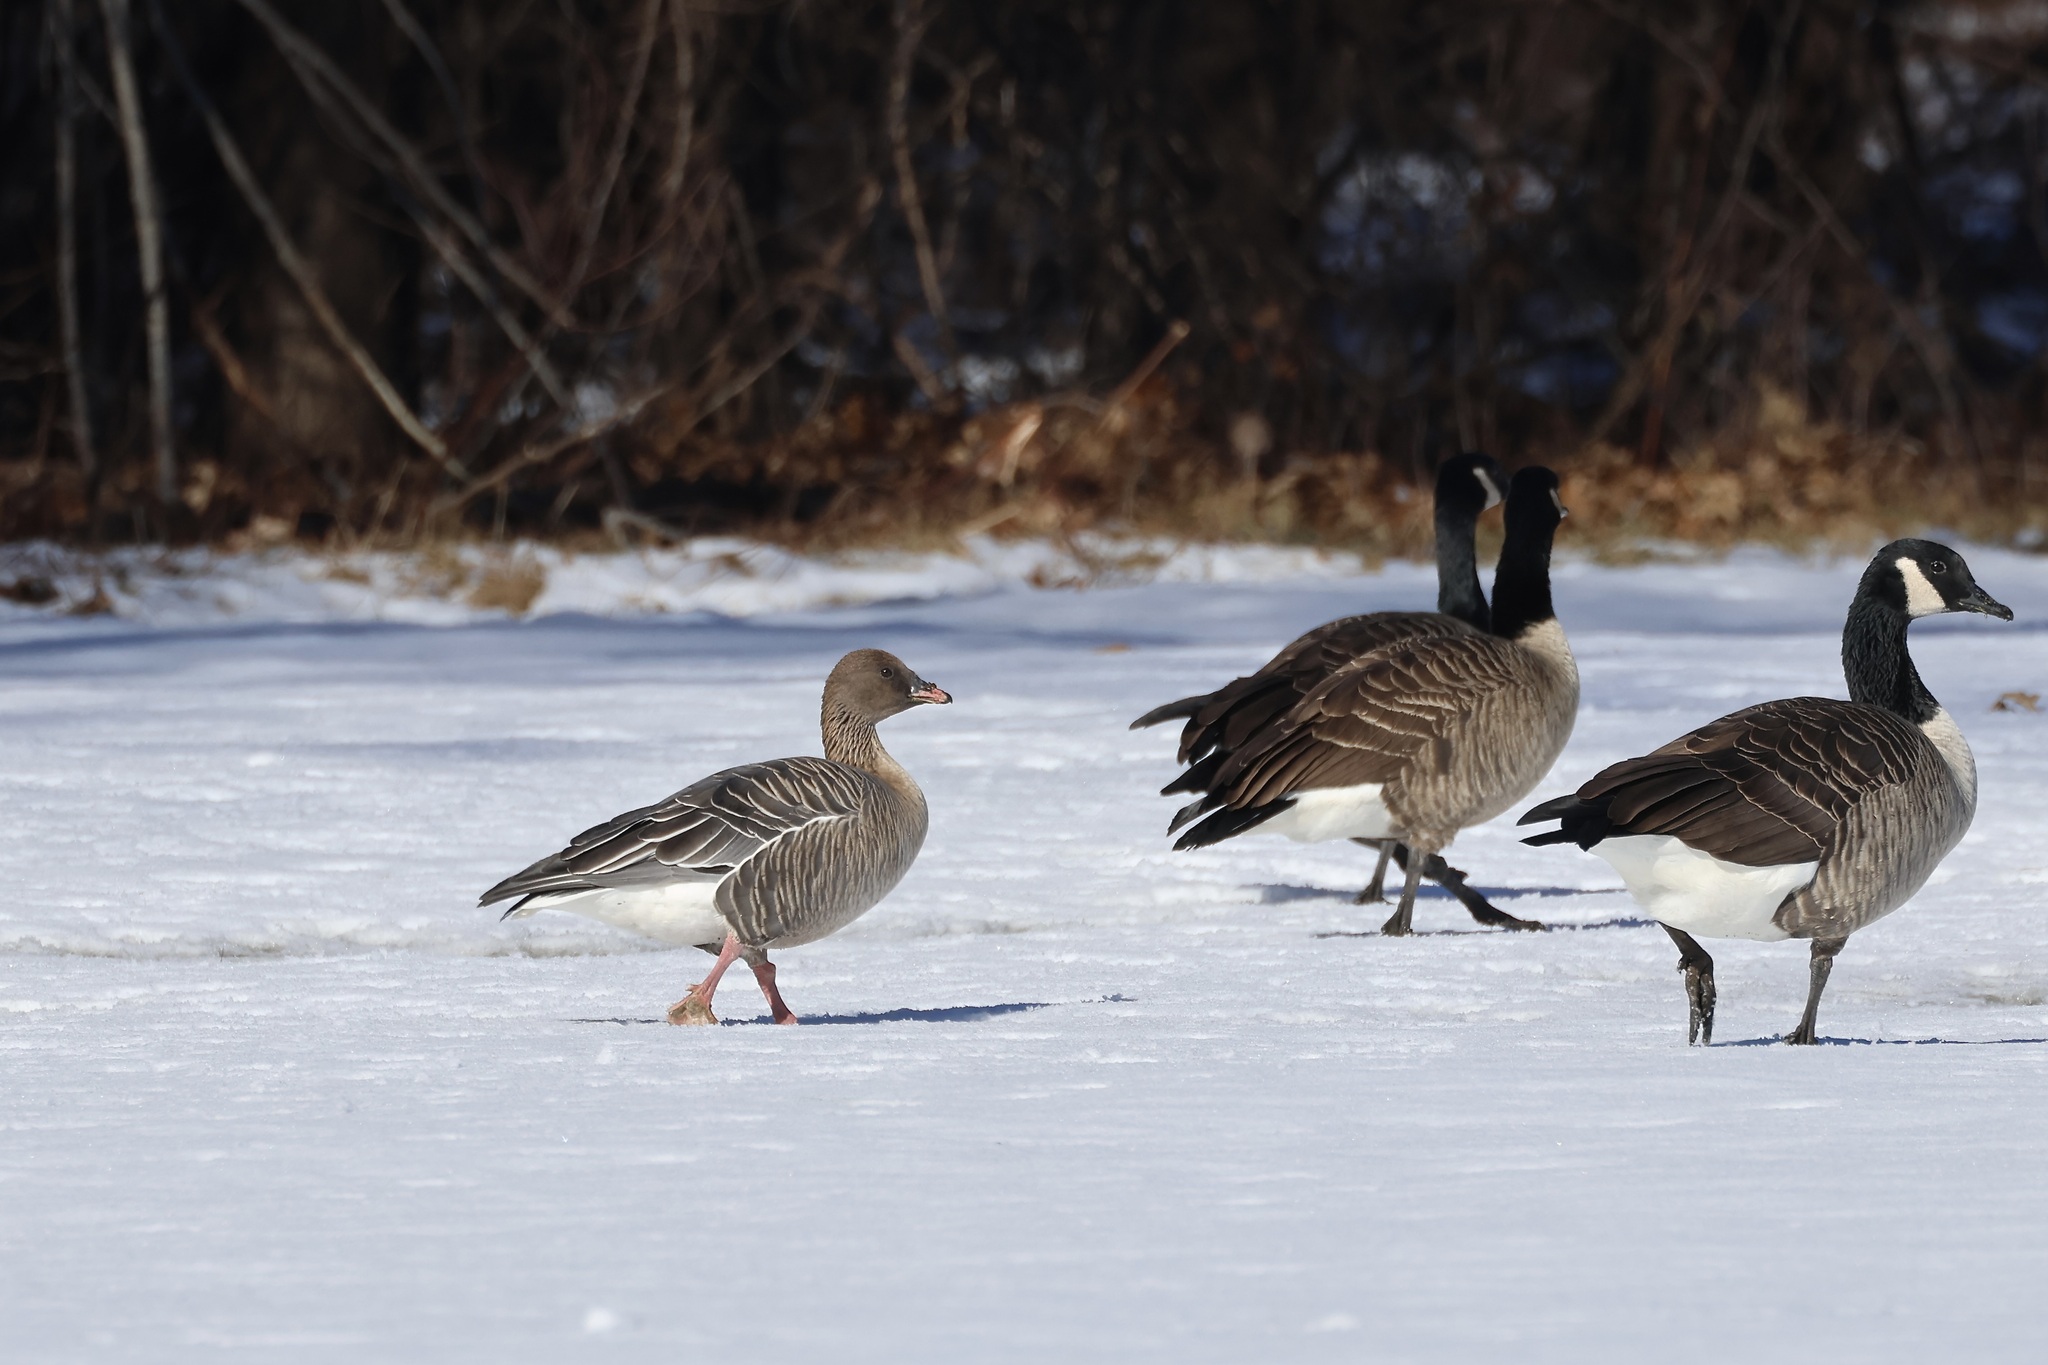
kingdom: Animalia
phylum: Chordata
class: Aves
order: Anseriformes
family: Anatidae
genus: Anser
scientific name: Anser brachyrhynchus
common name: Pink-footed goose
